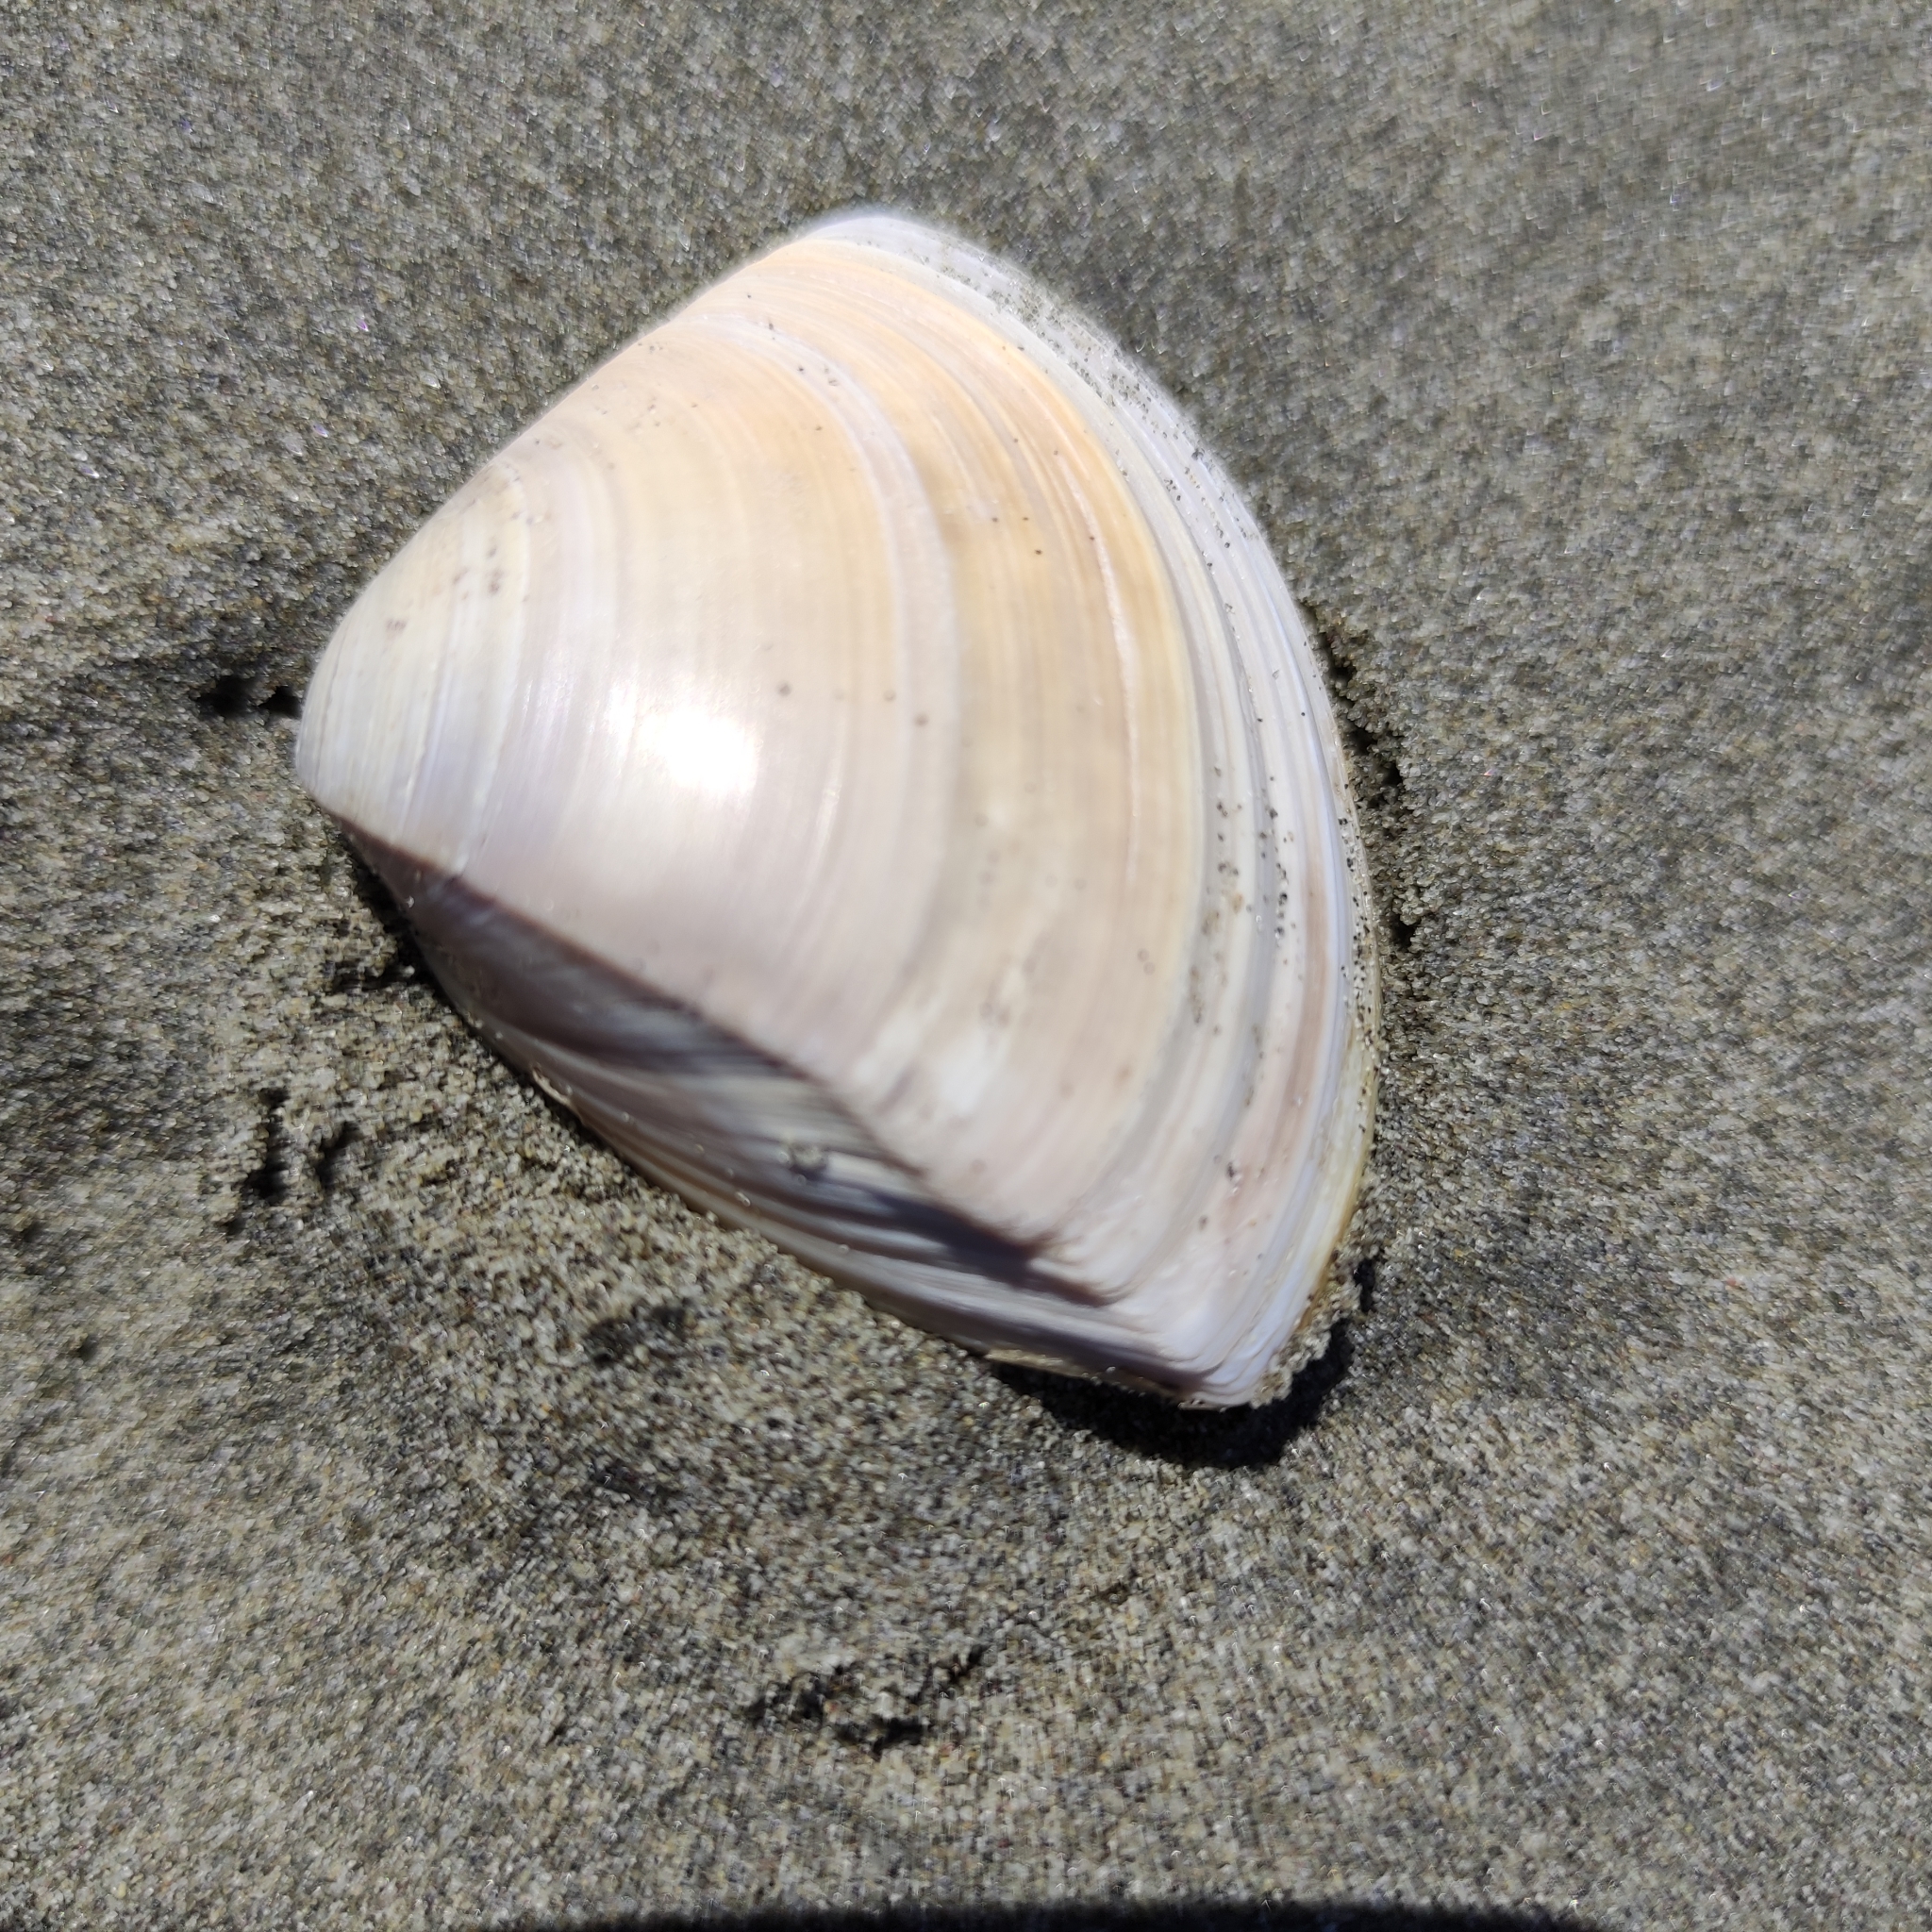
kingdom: Animalia
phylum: Mollusca
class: Bivalvia
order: Venerida
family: Mactridae
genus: Crassula
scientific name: Crassula aequilatera
